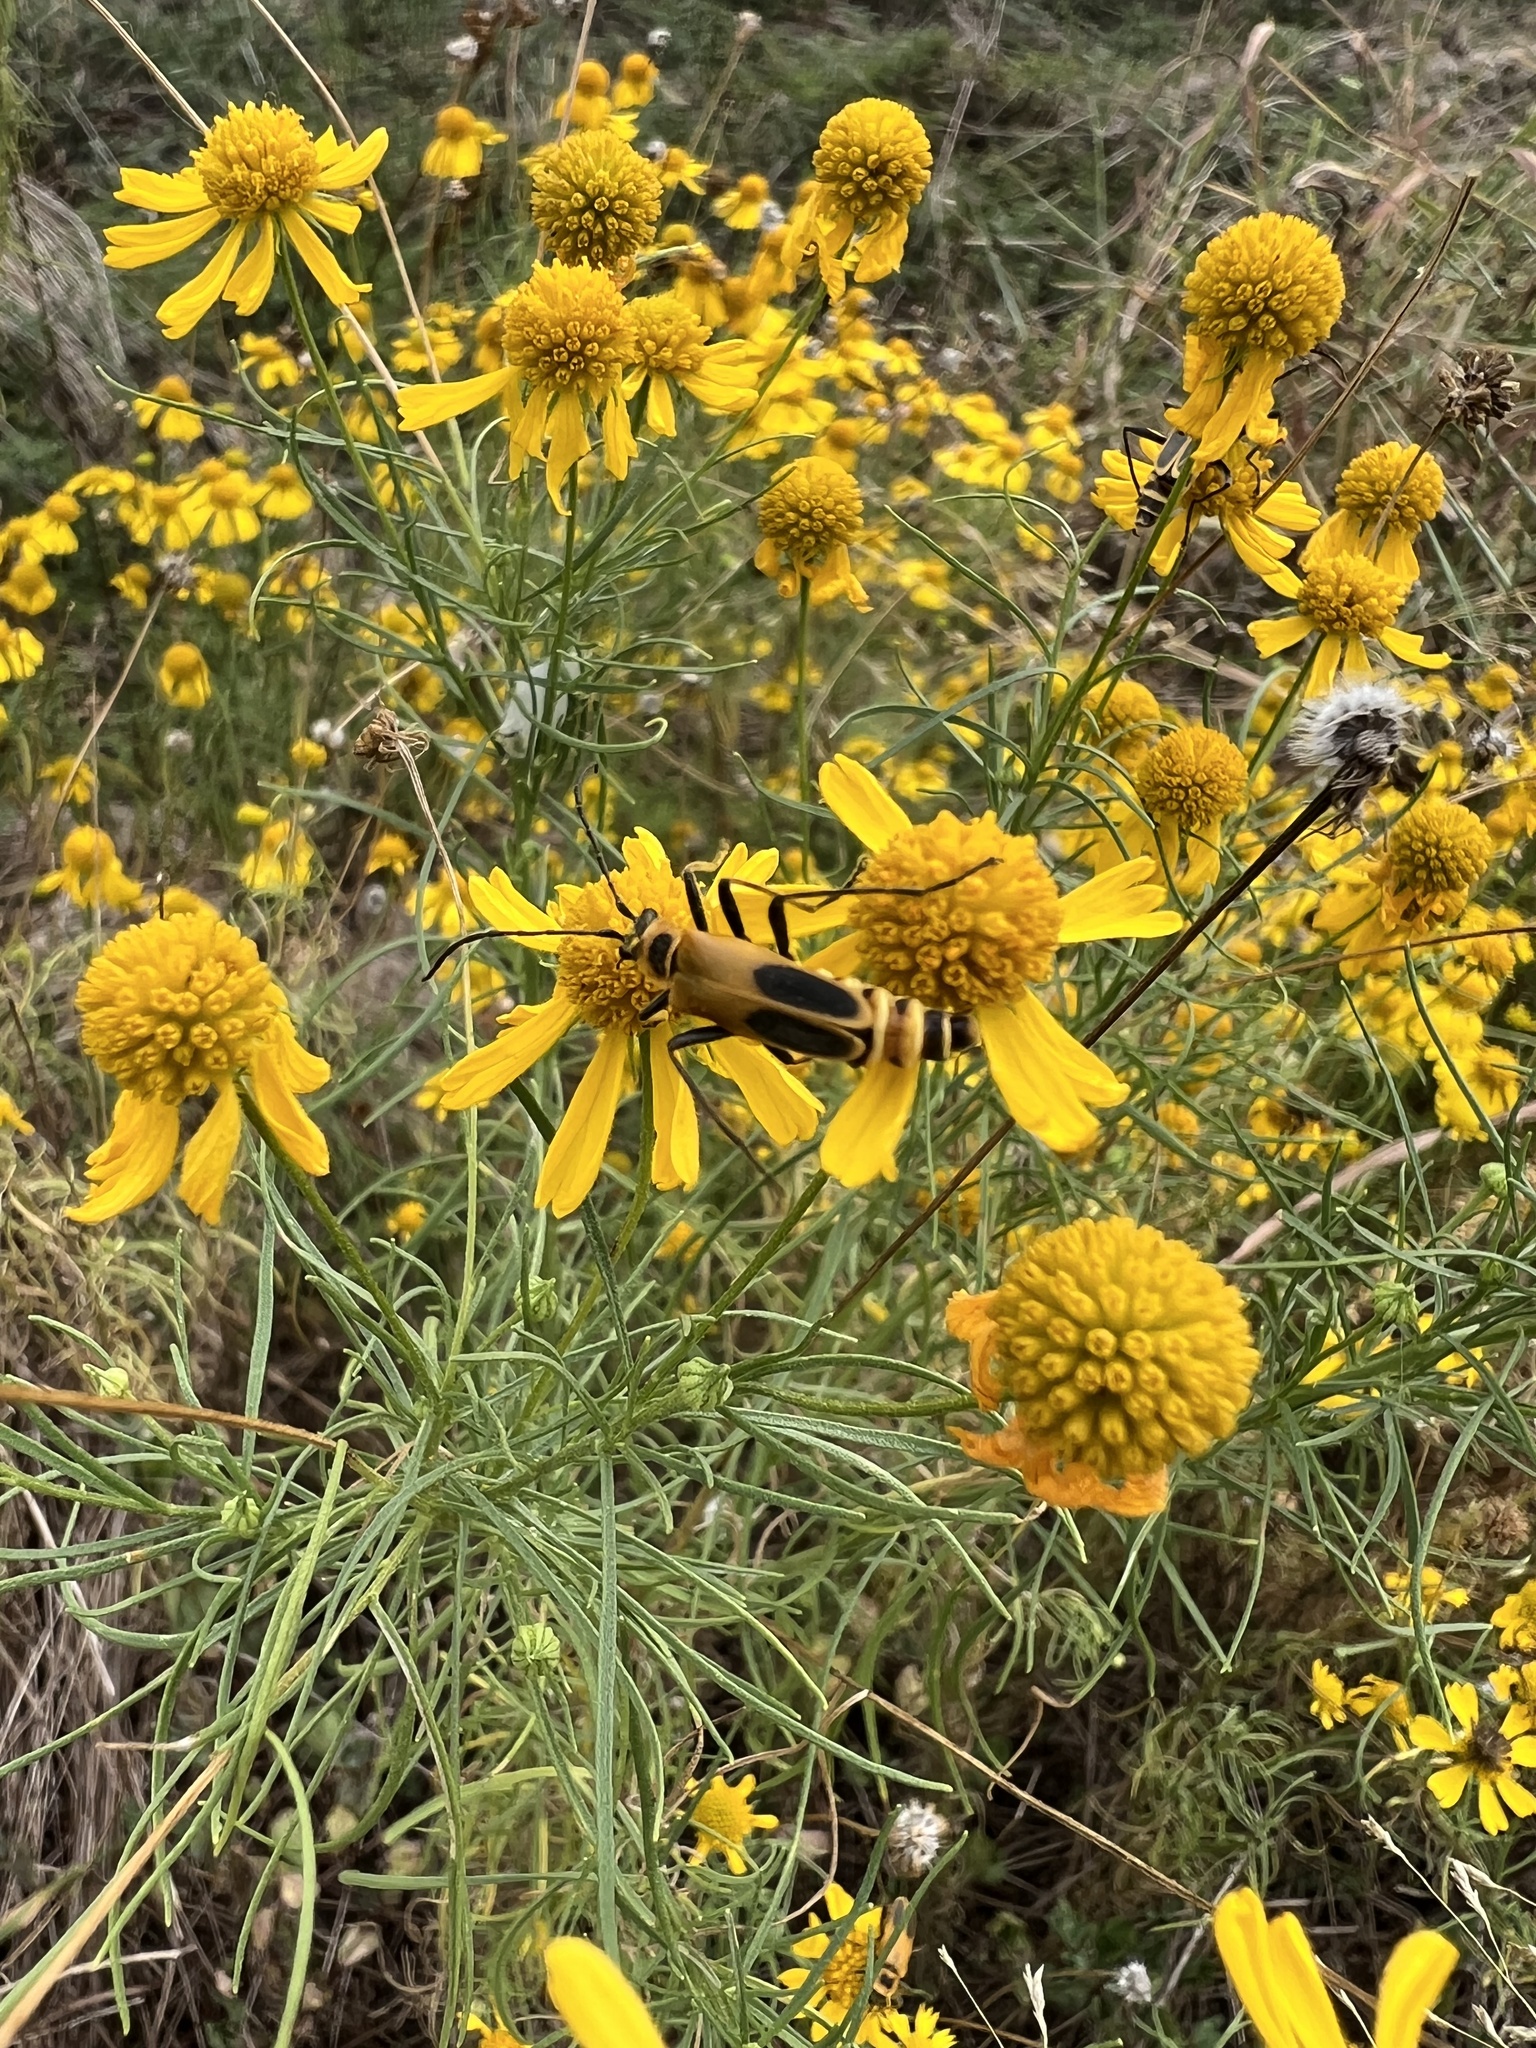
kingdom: Animalia
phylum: Arthropoda
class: Insecta
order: Coleoptera
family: Cantharidae
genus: Chauliognathus
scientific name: Chauliognathus pensylvanicus
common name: Goldenrod soldier beetle
